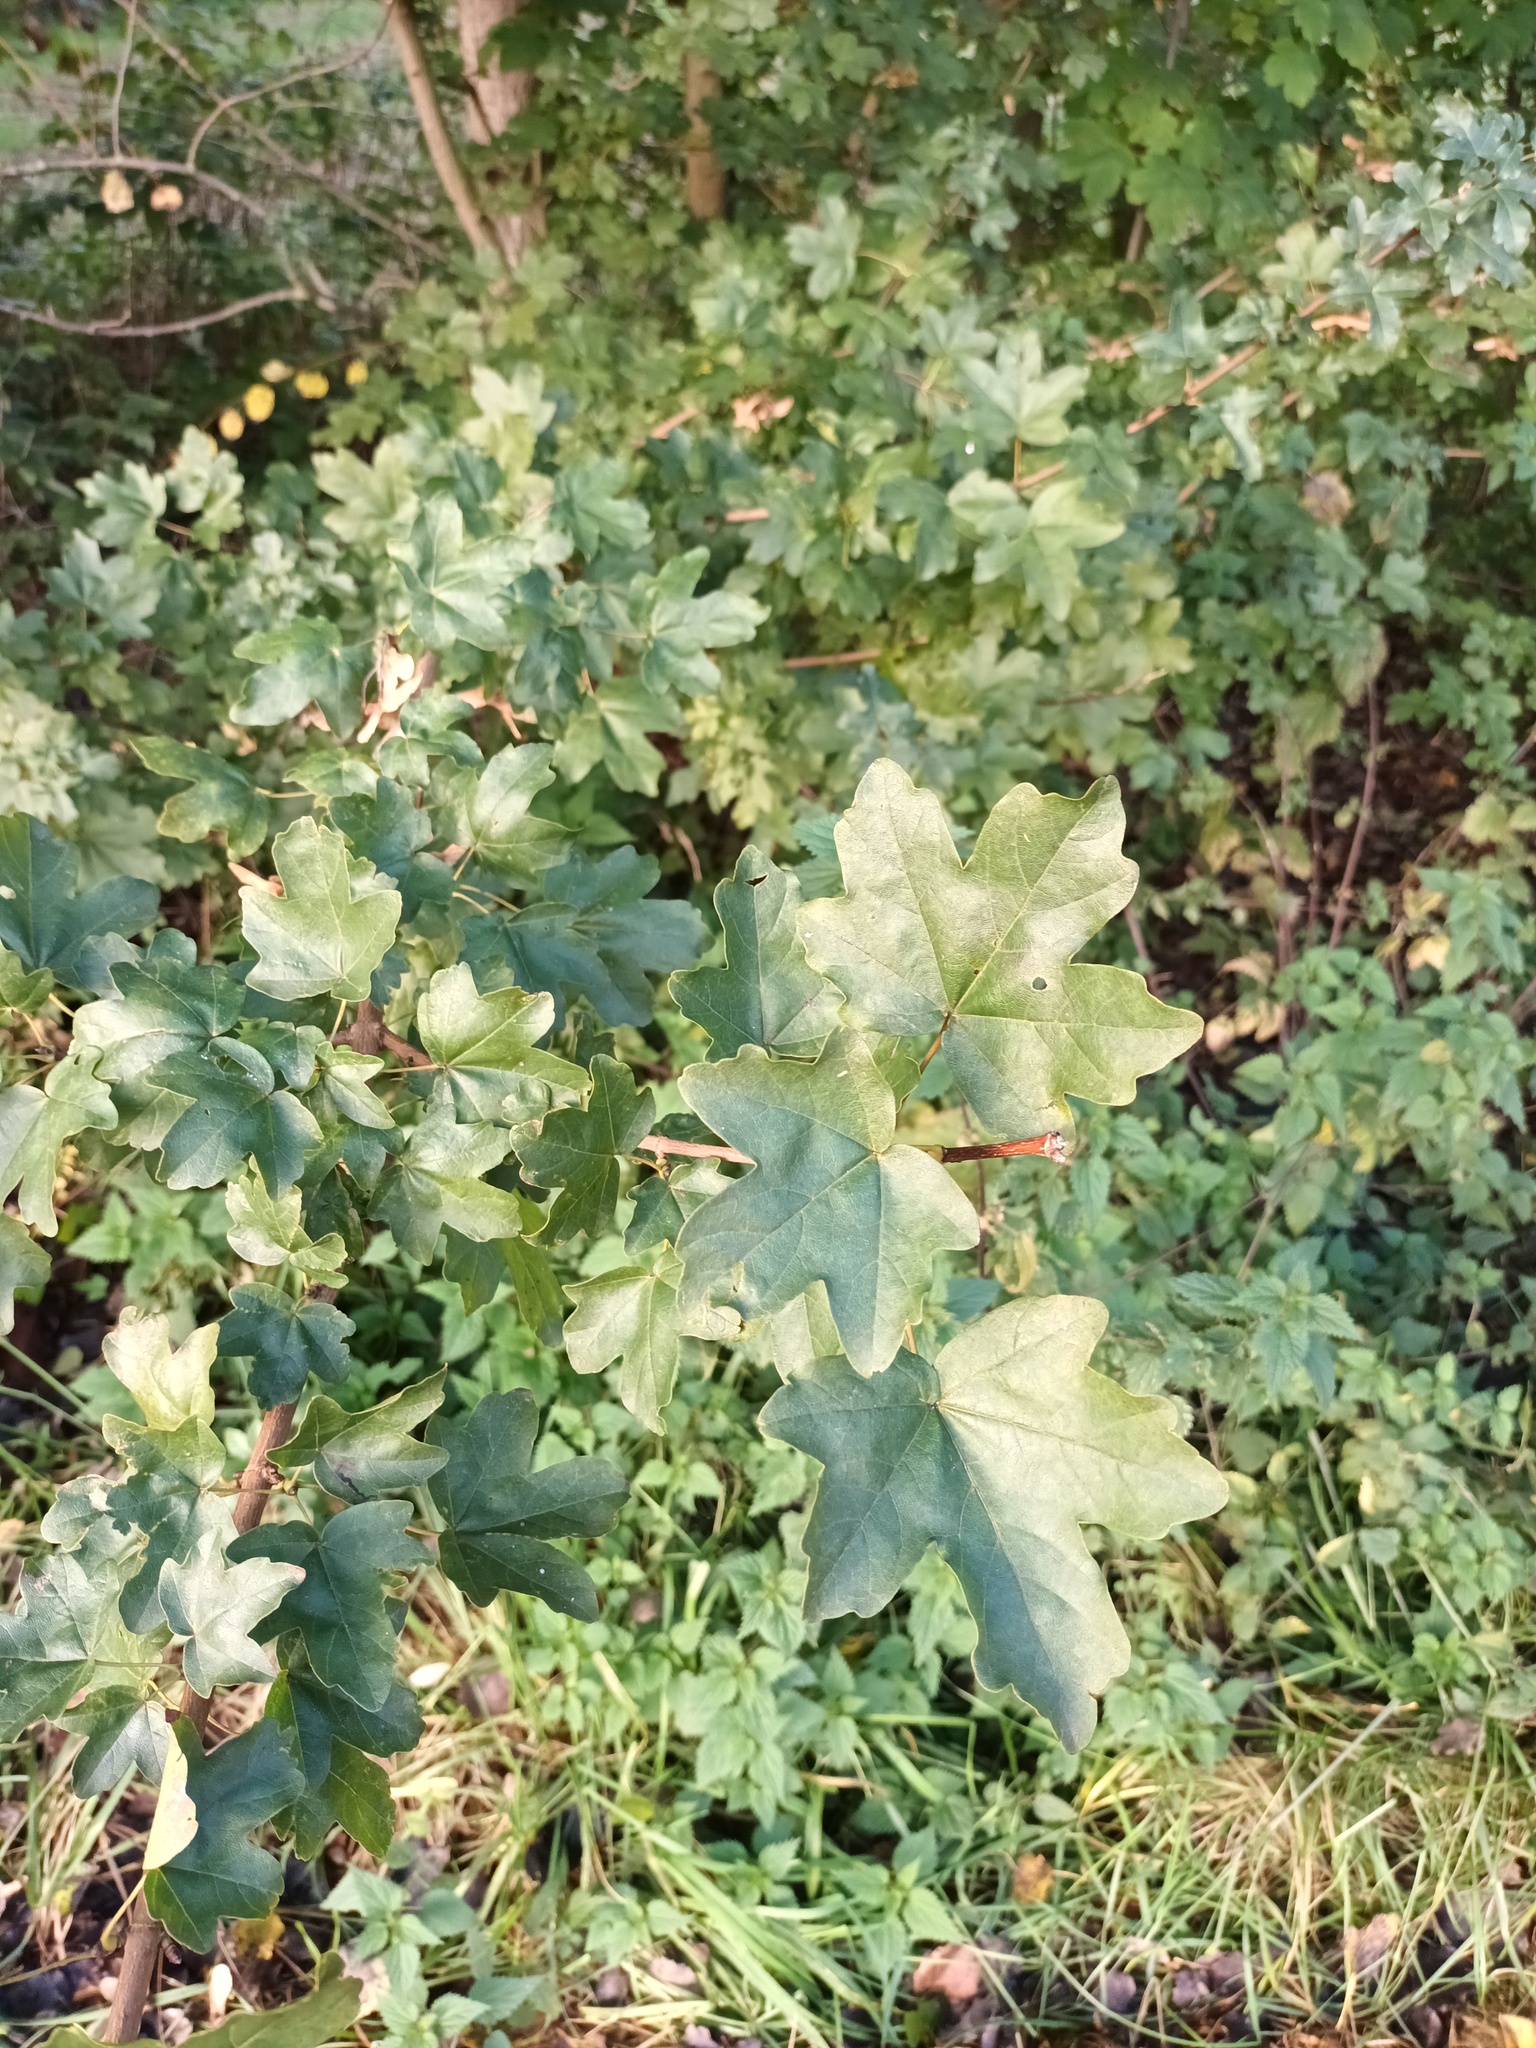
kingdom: Plantae
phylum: Tracheophyta
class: Magnoliopsida
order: Sapindales
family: Sapindaceae
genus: Acer
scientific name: Acer campestre
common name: Field maple
